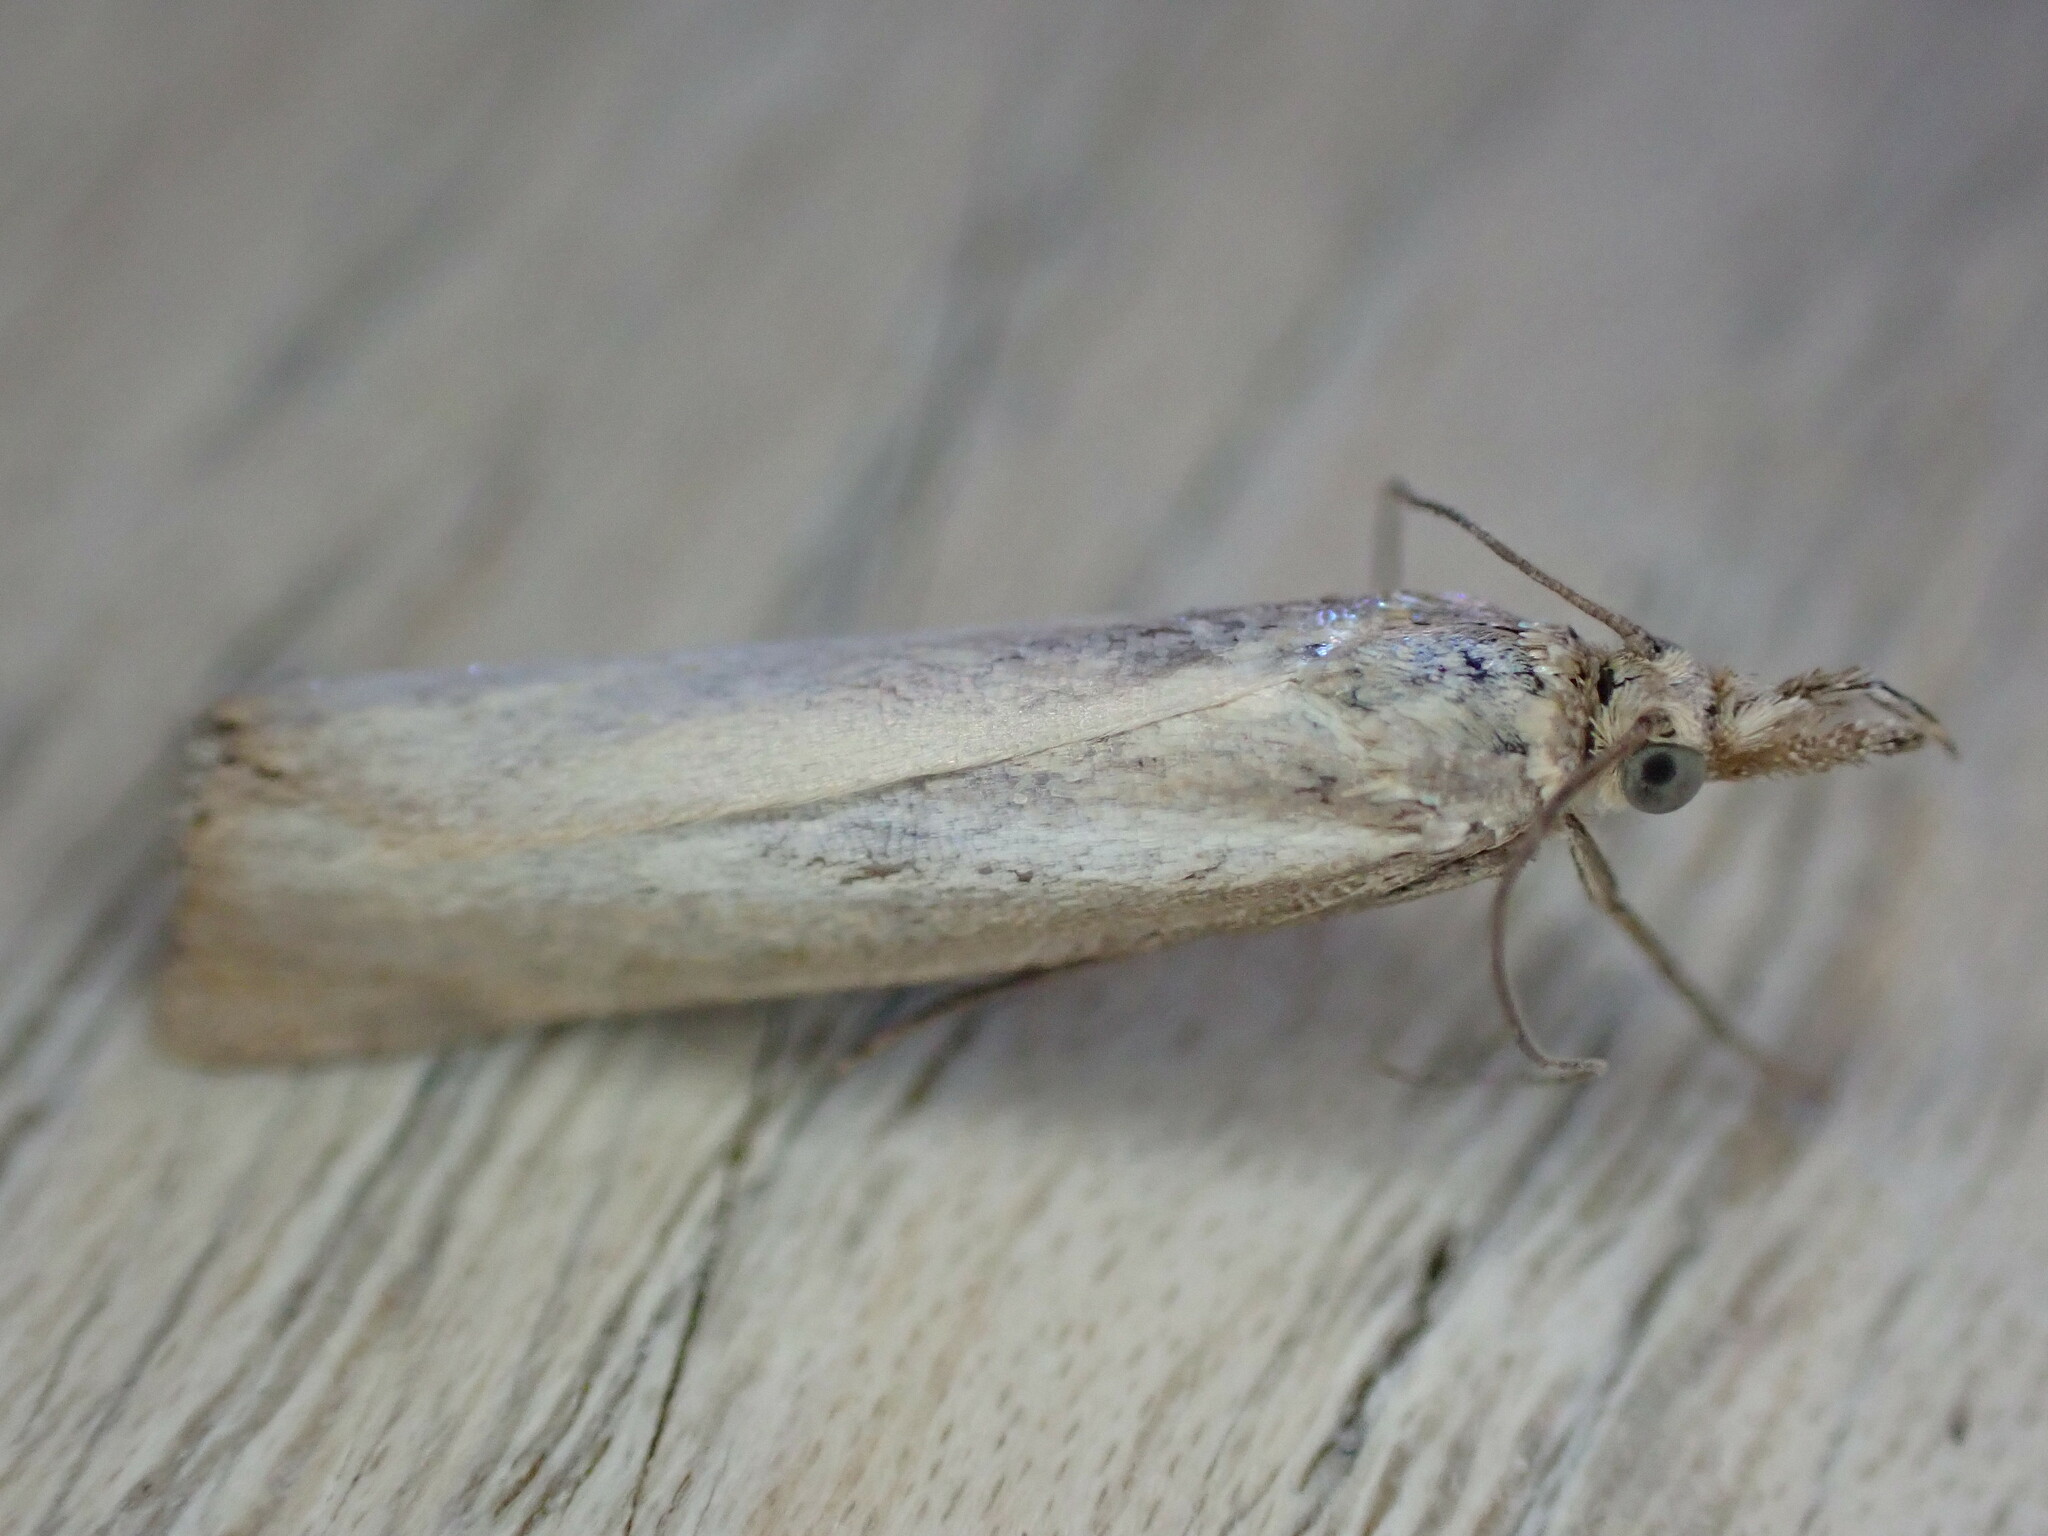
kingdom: Animalia
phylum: Arthropoda
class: Insecta
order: Lepidoptera
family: Crambidae
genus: Agriphila
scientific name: Agriphila straminella
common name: Straw grass-veneer
